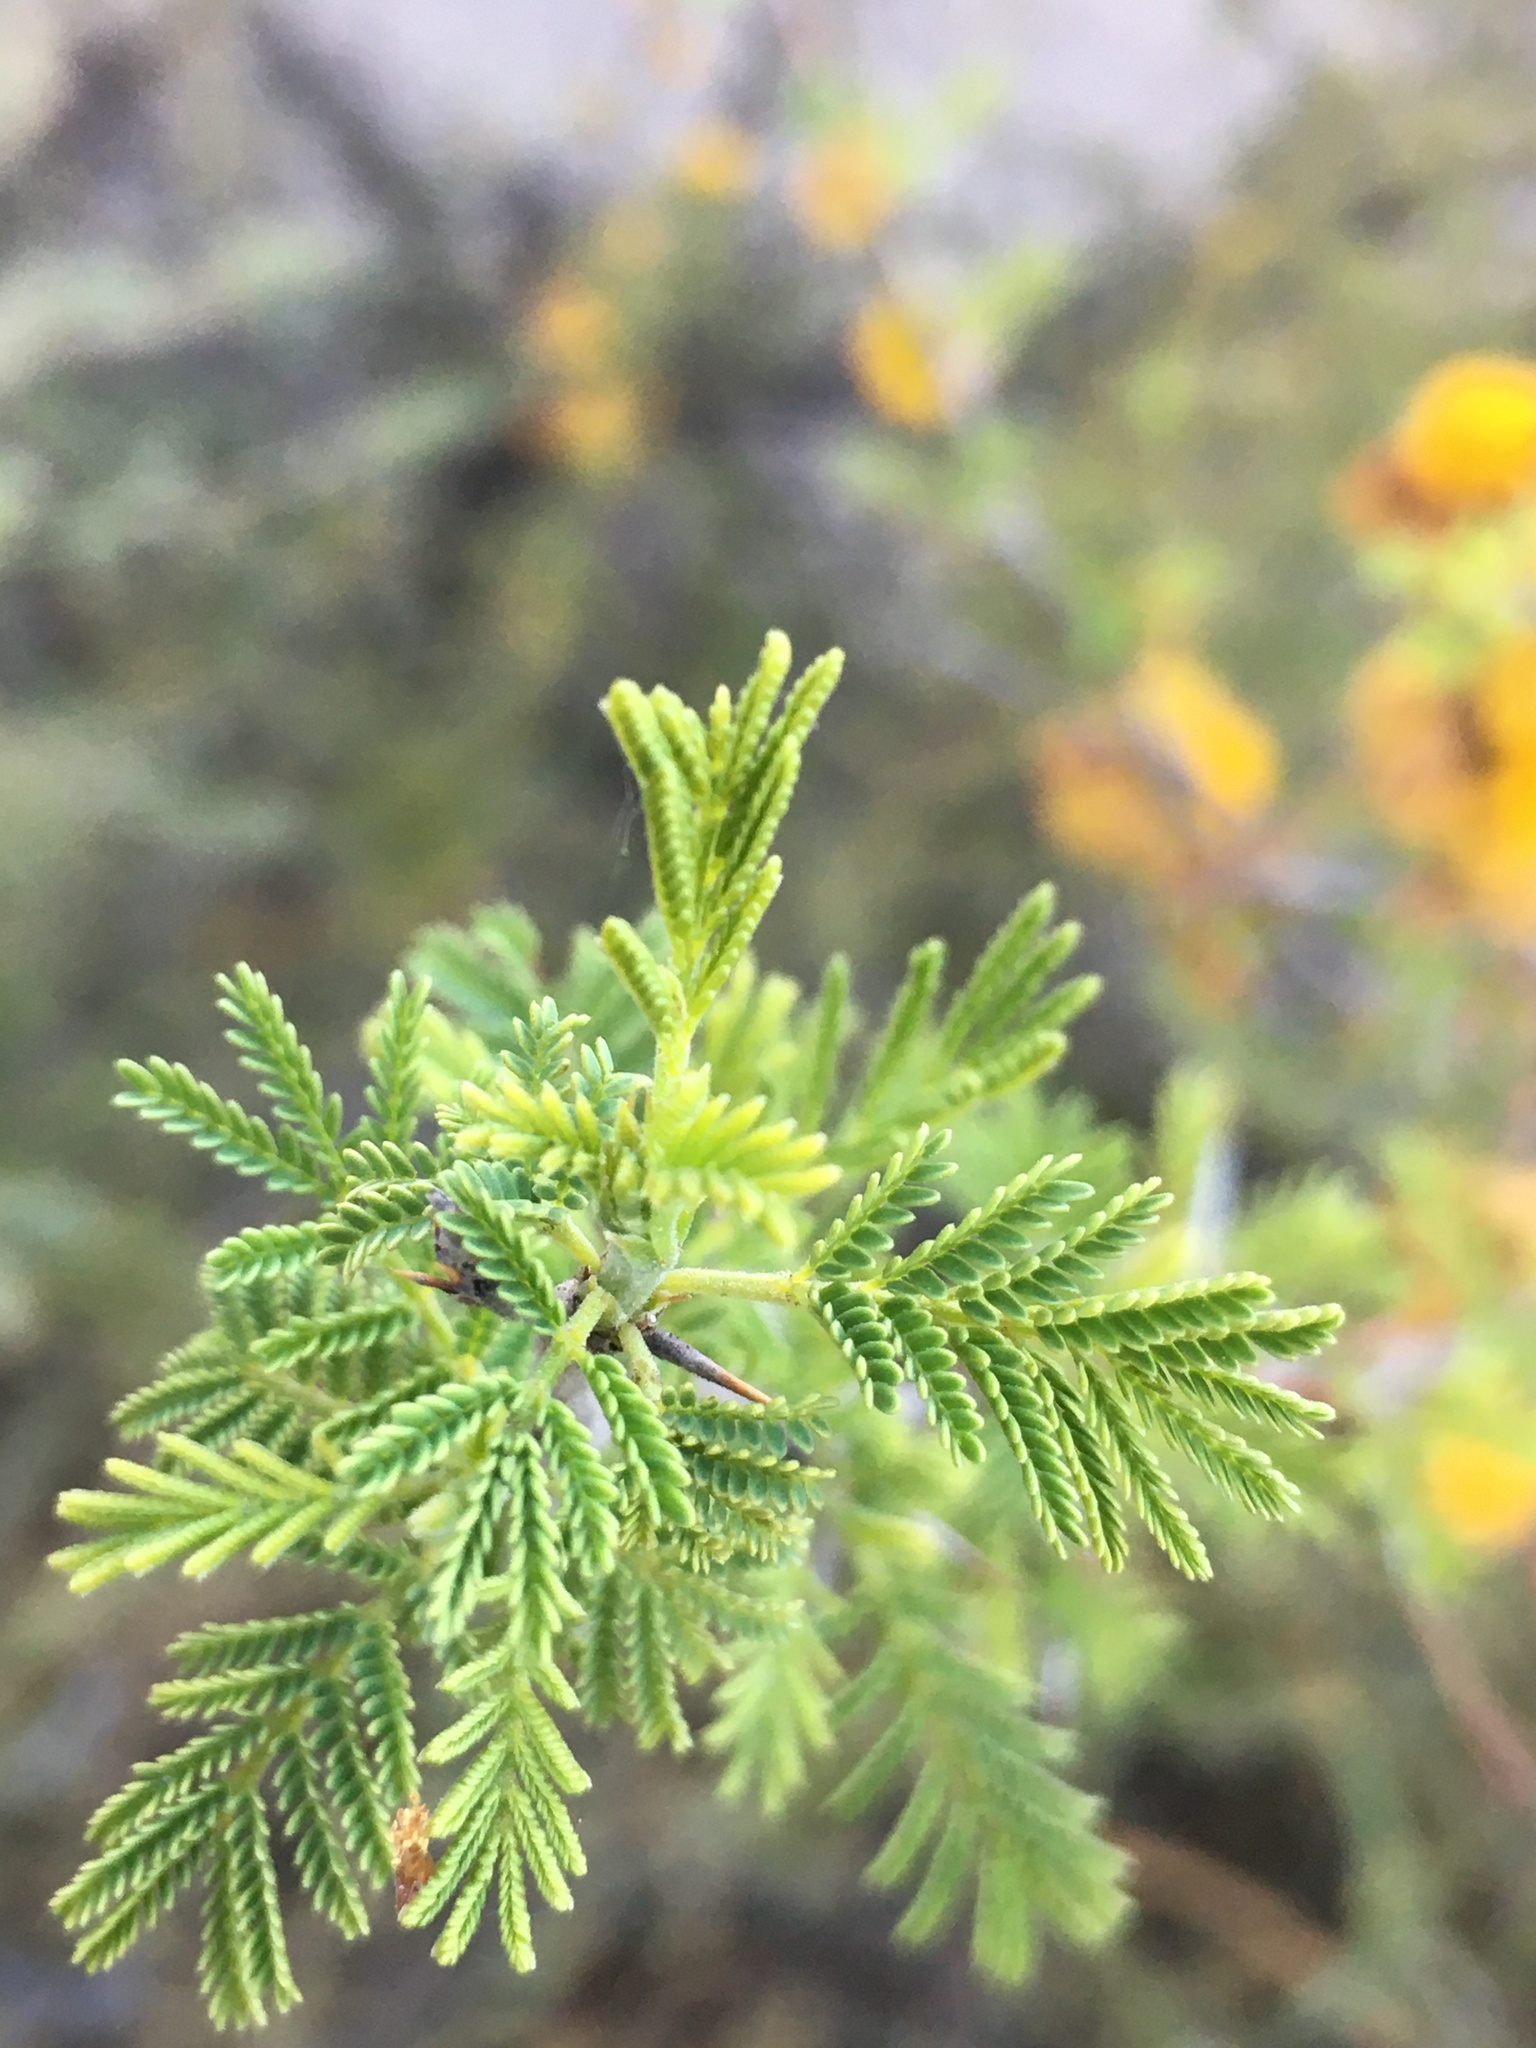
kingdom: Plantae
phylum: Tracheophyta
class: Magnoliopsida
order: Fabales
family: Fabaceae
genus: Vachellia
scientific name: Vachellia caven
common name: Roman cassie
